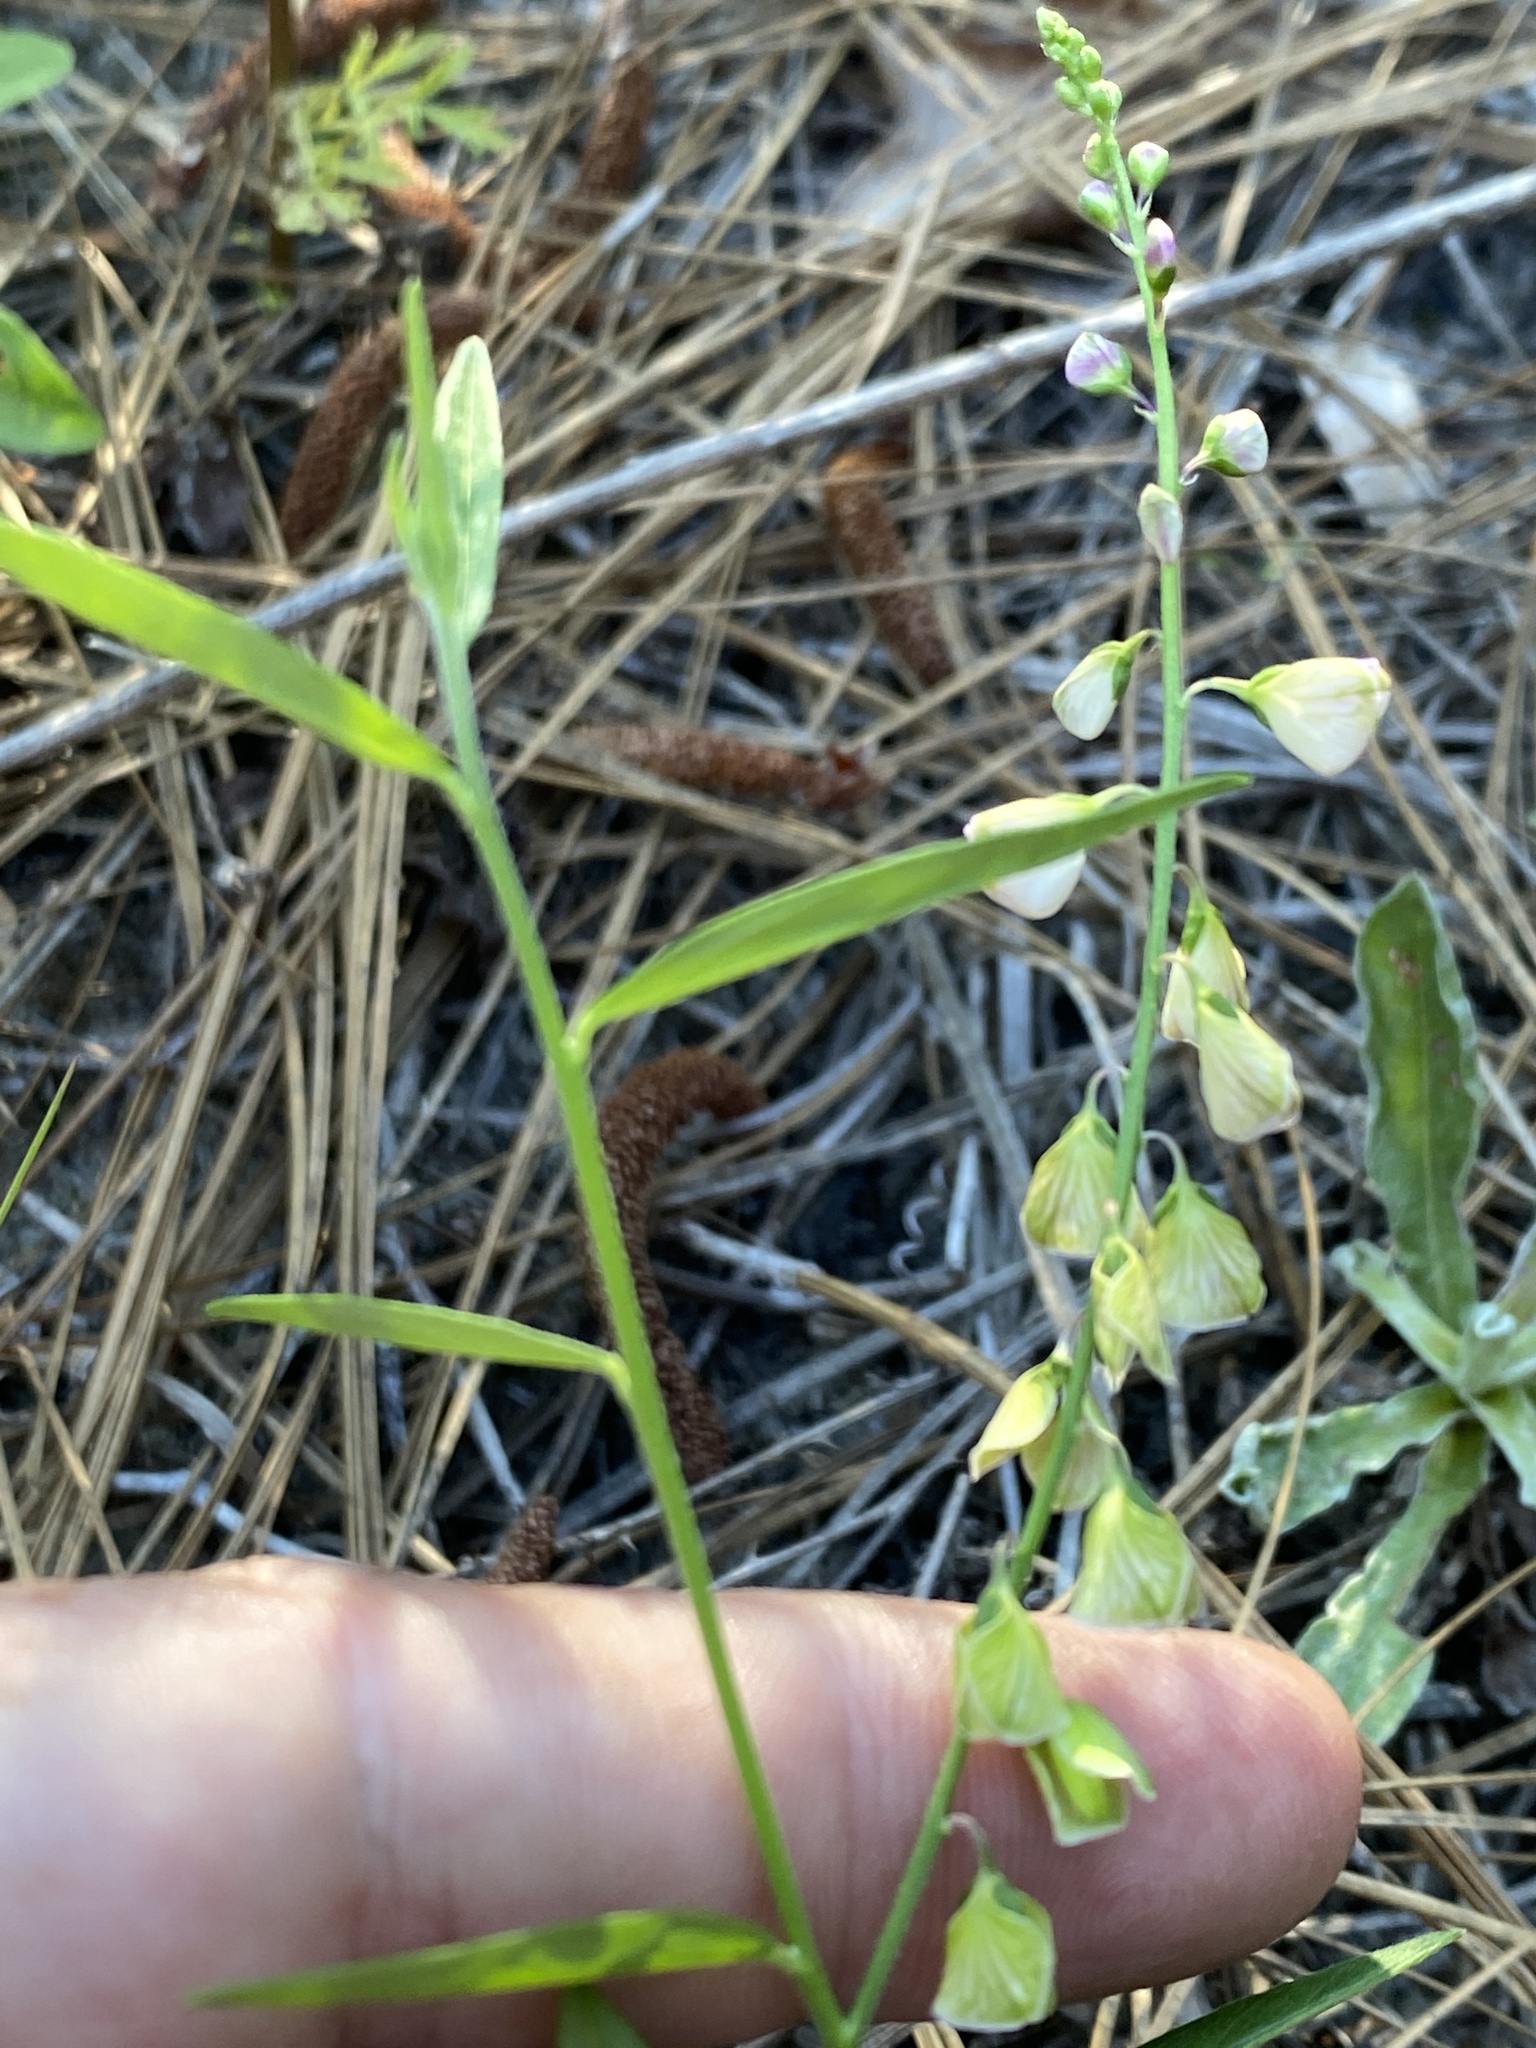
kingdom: Plantae
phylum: Tracheophyta
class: Magnoliopsida
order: Fabales
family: Polygalaceae
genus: Asemeia
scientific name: Asemeia grandiflora
